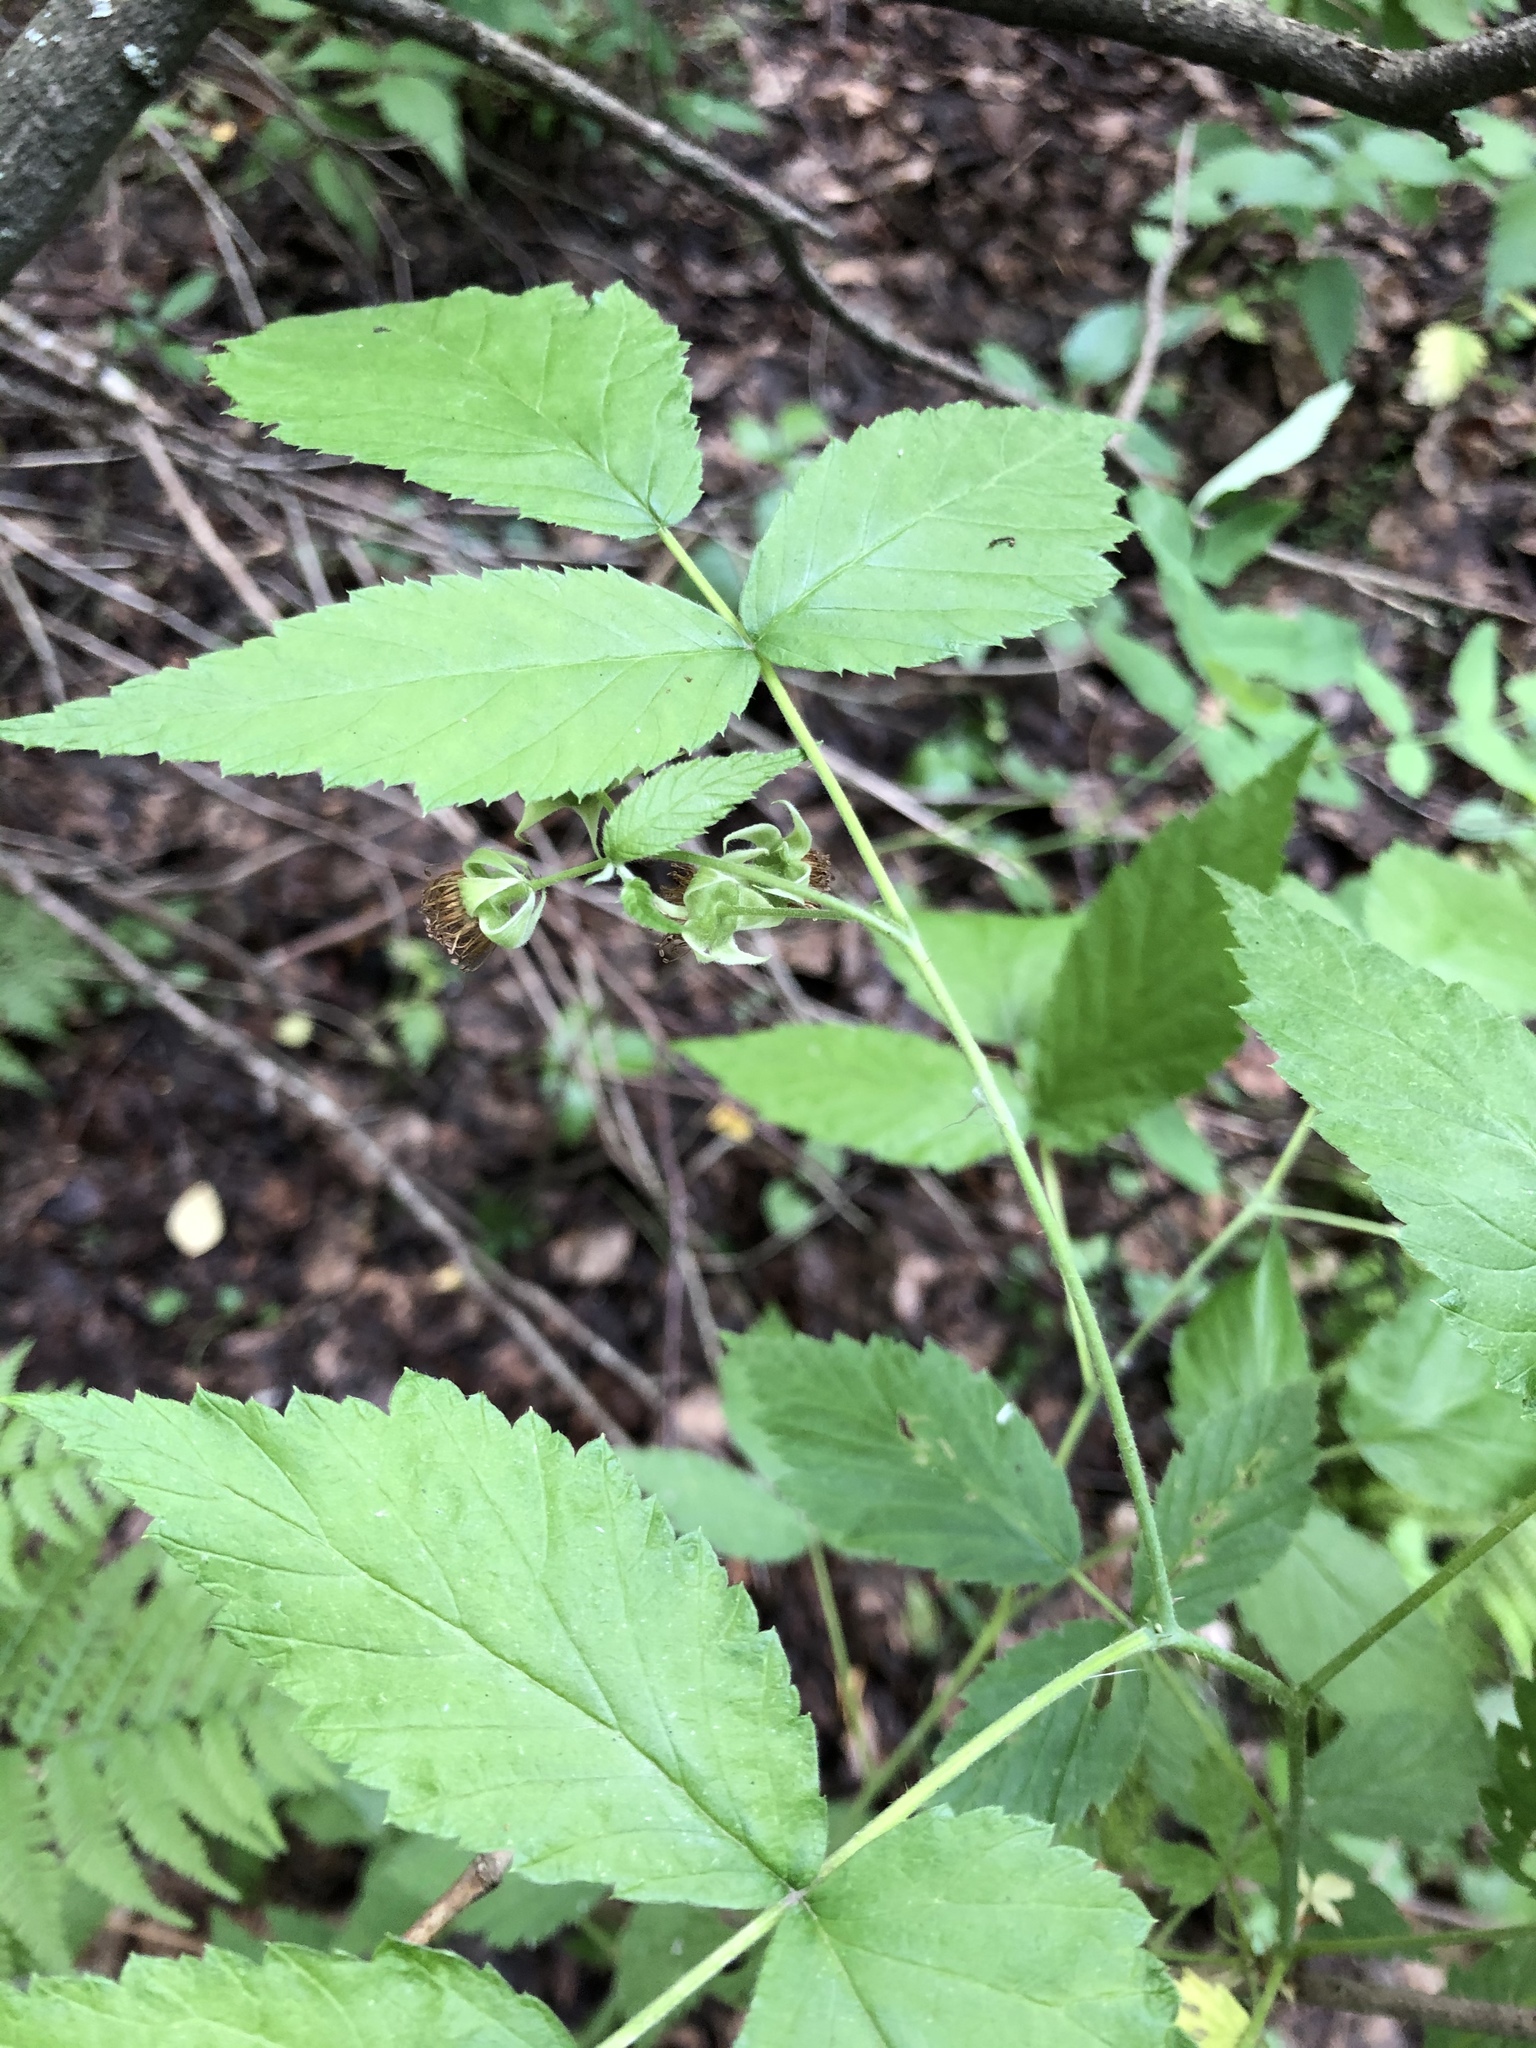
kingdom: Plantae
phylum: Tracheophyta
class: Magnoliopsida
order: Rosales
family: Rosaceae
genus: Rubus
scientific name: Rubus idaeus
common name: Raspberry
